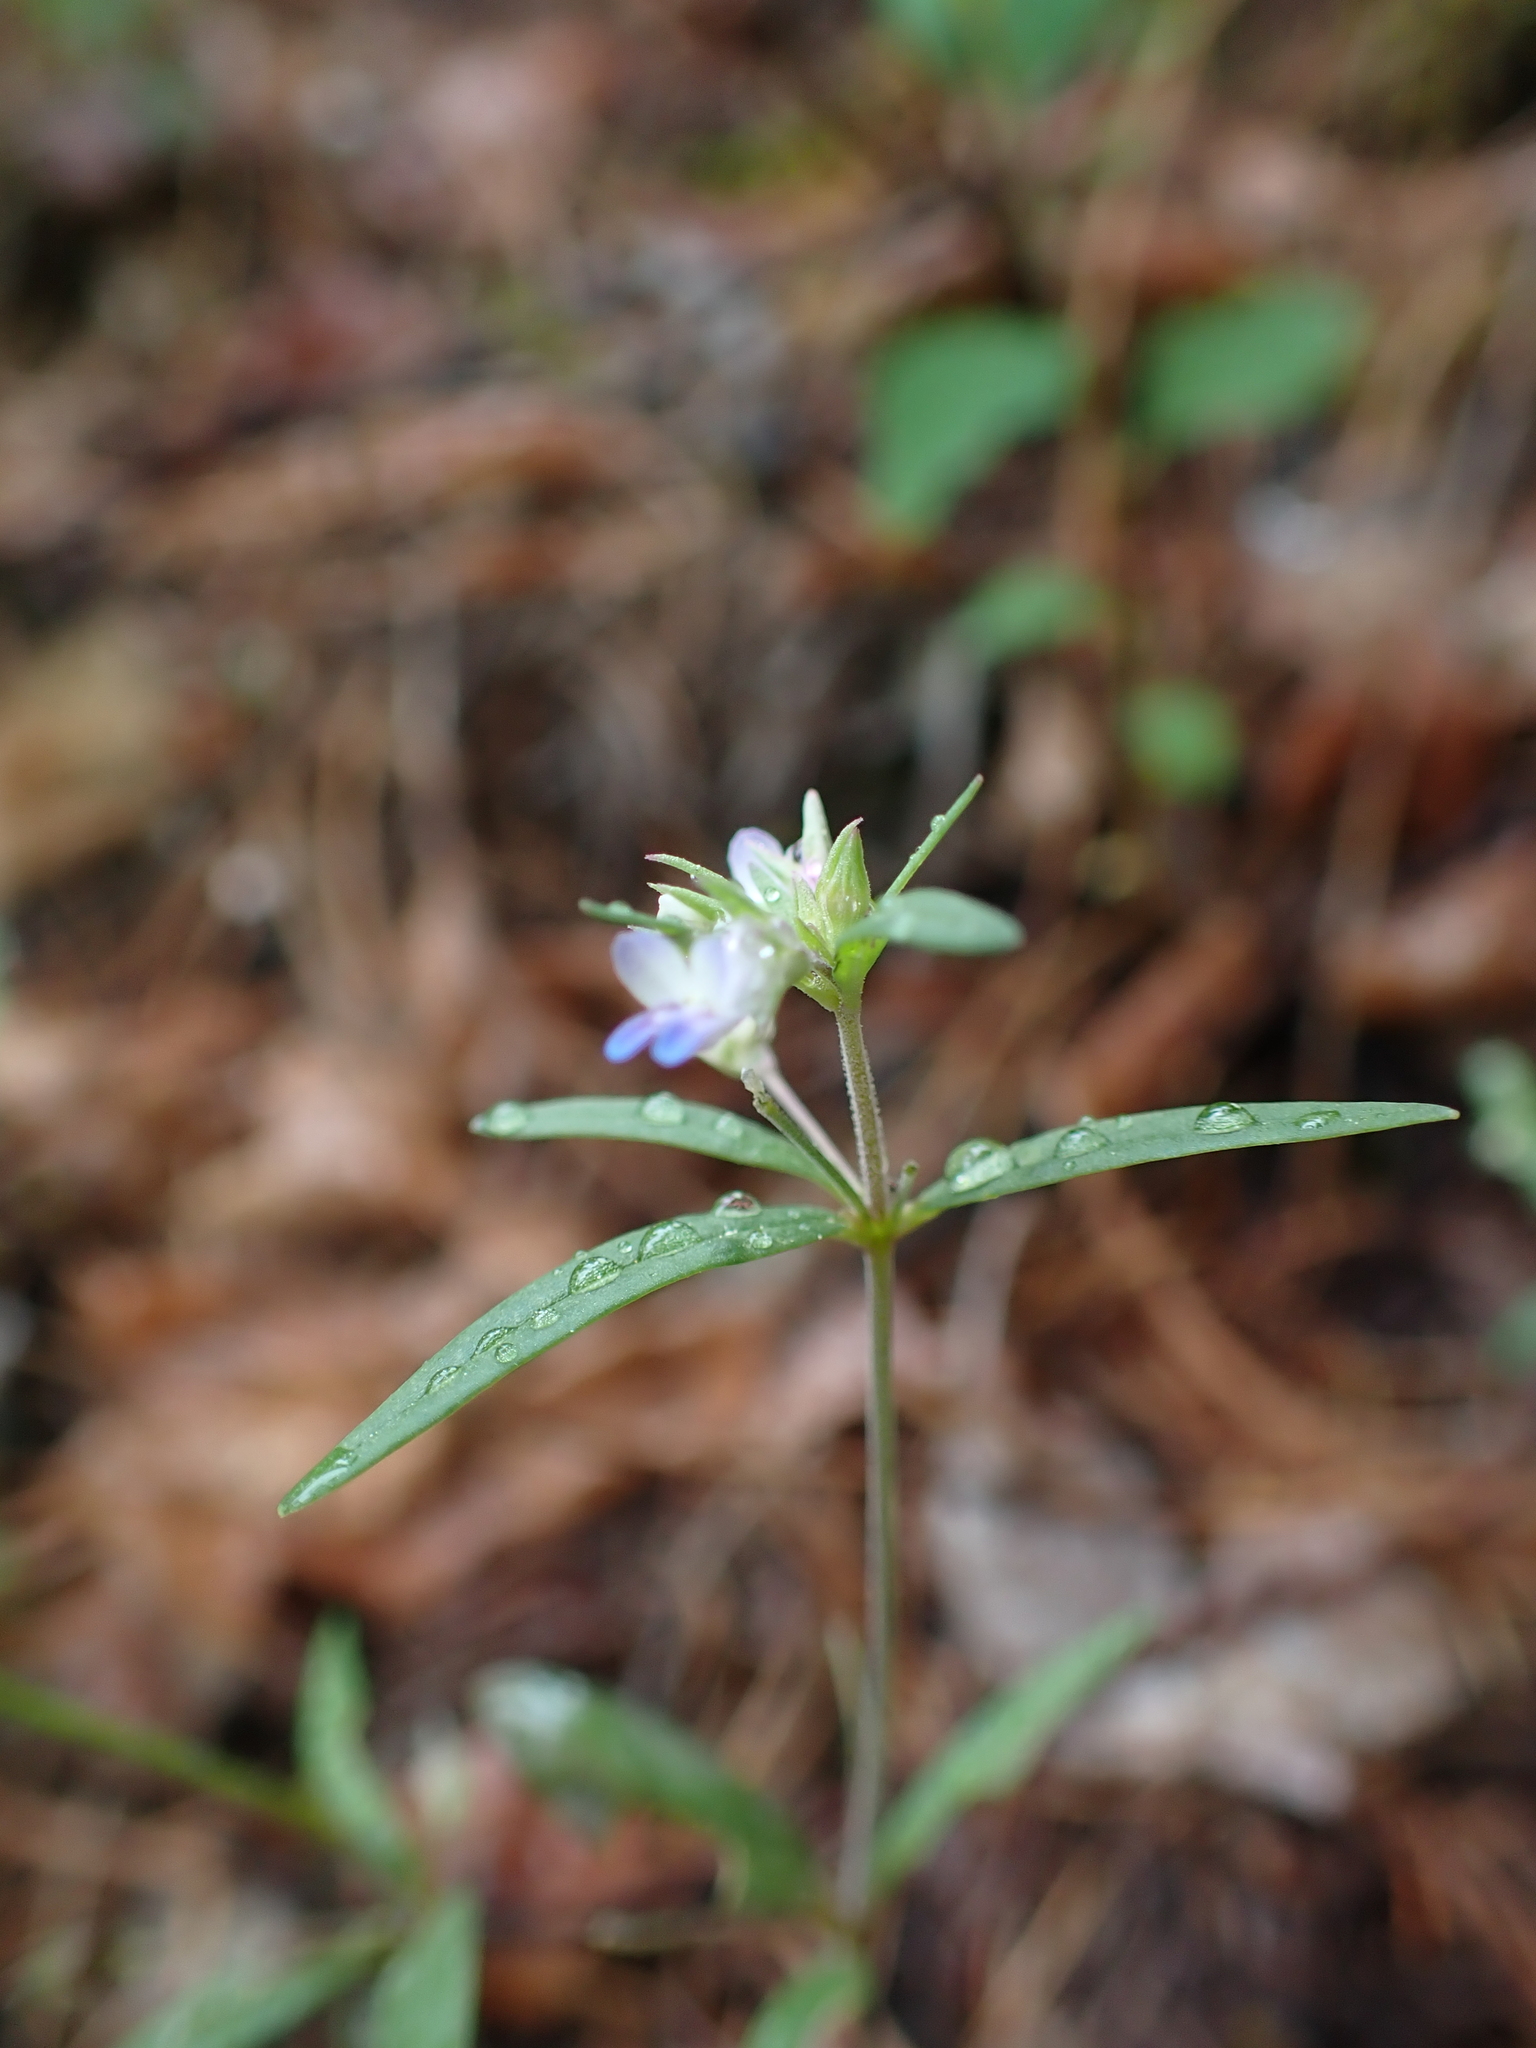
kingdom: Plantae
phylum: Tracheophyta
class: Magnoliopsida
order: Lamiales
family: Plantaginaceae
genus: Collinsia
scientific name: Collinsia parviflora
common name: Blue-lips
